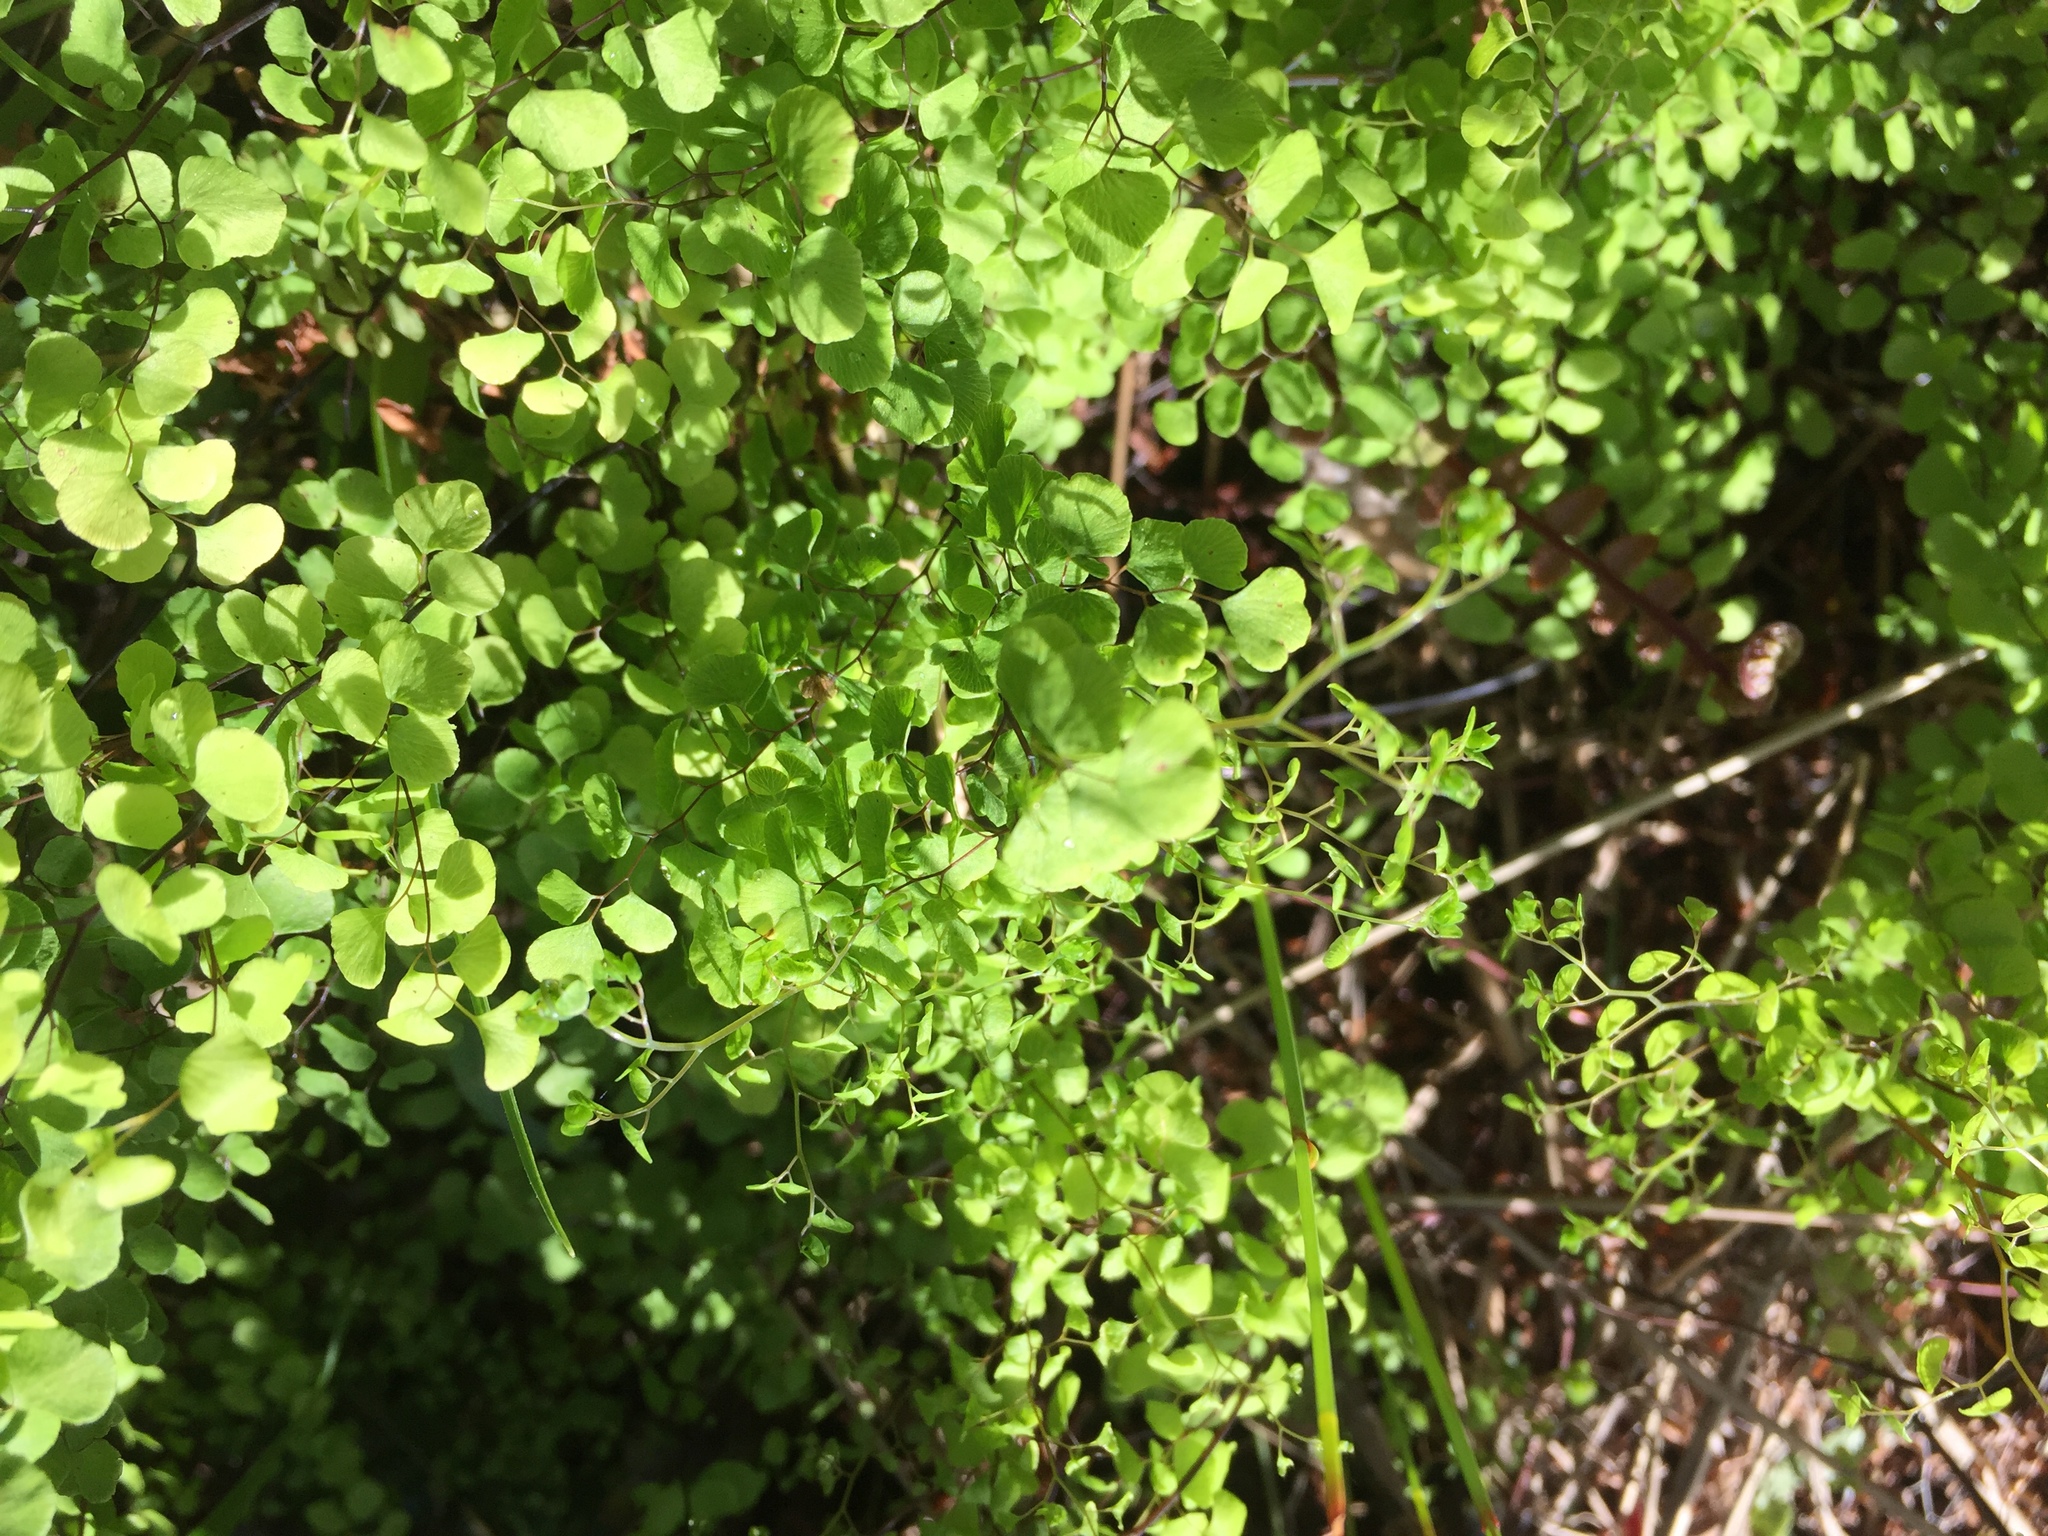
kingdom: Plantae
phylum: Tracheophyta
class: Polypodiopsida
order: Polypodiales
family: Pteridaceae
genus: Adiantum
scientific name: Adiantum aethiopicum
